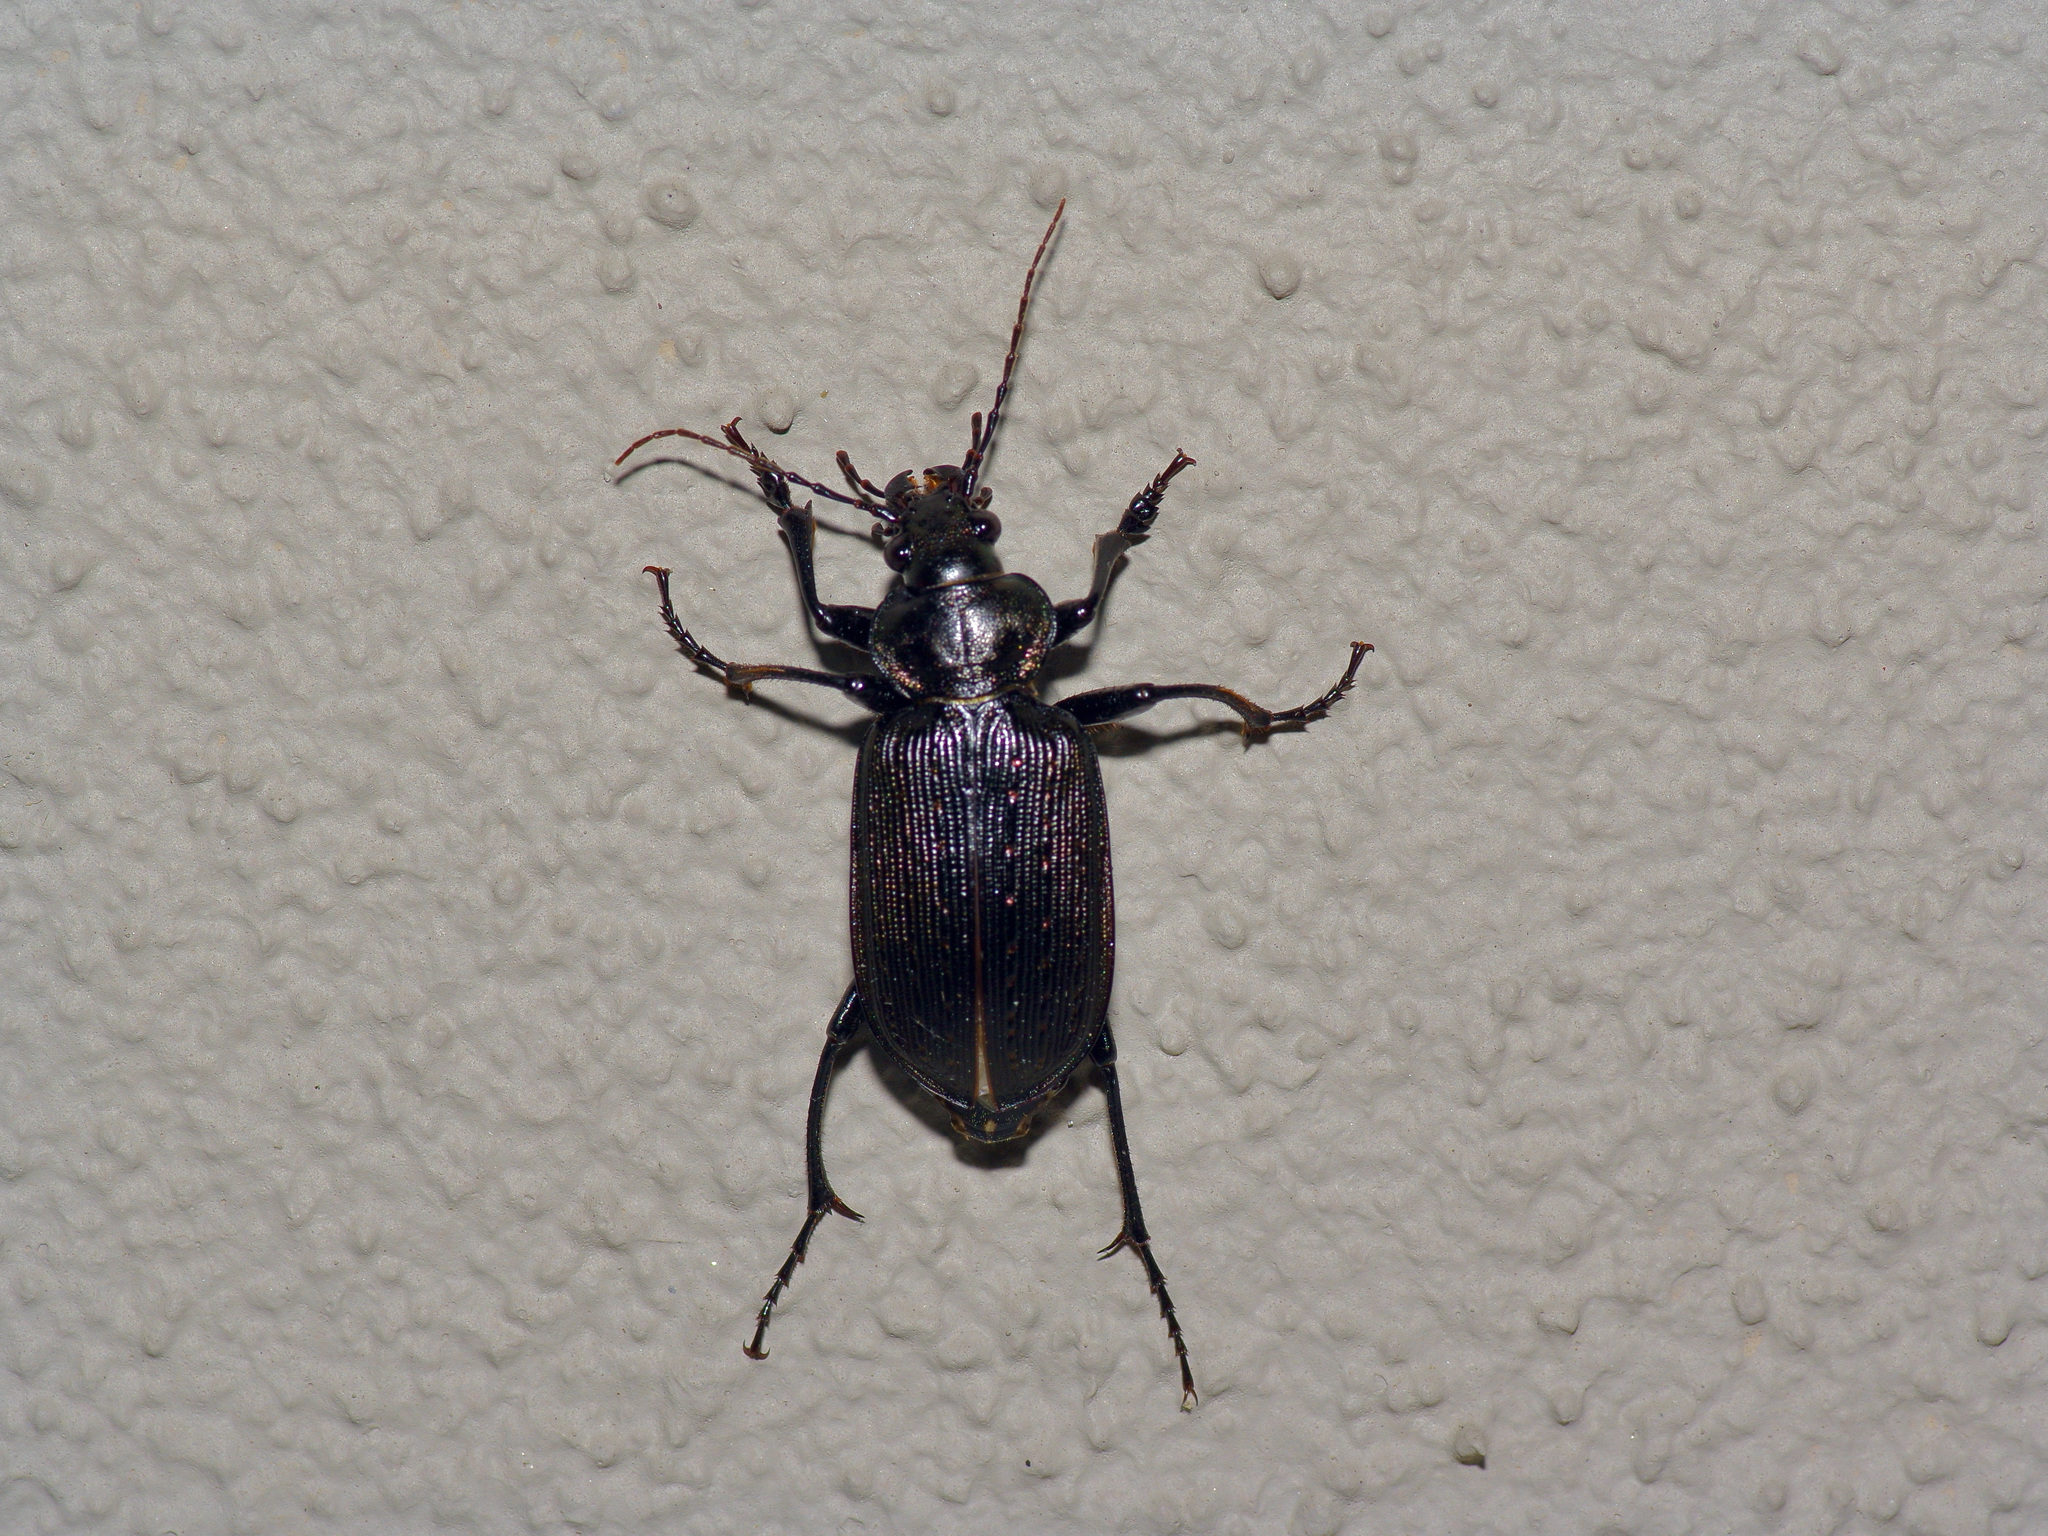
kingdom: Animalia
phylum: Arthropoda
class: Insecta
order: Coleoptera
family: Carabidae
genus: Calosoma
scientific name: Calosoma sayi
